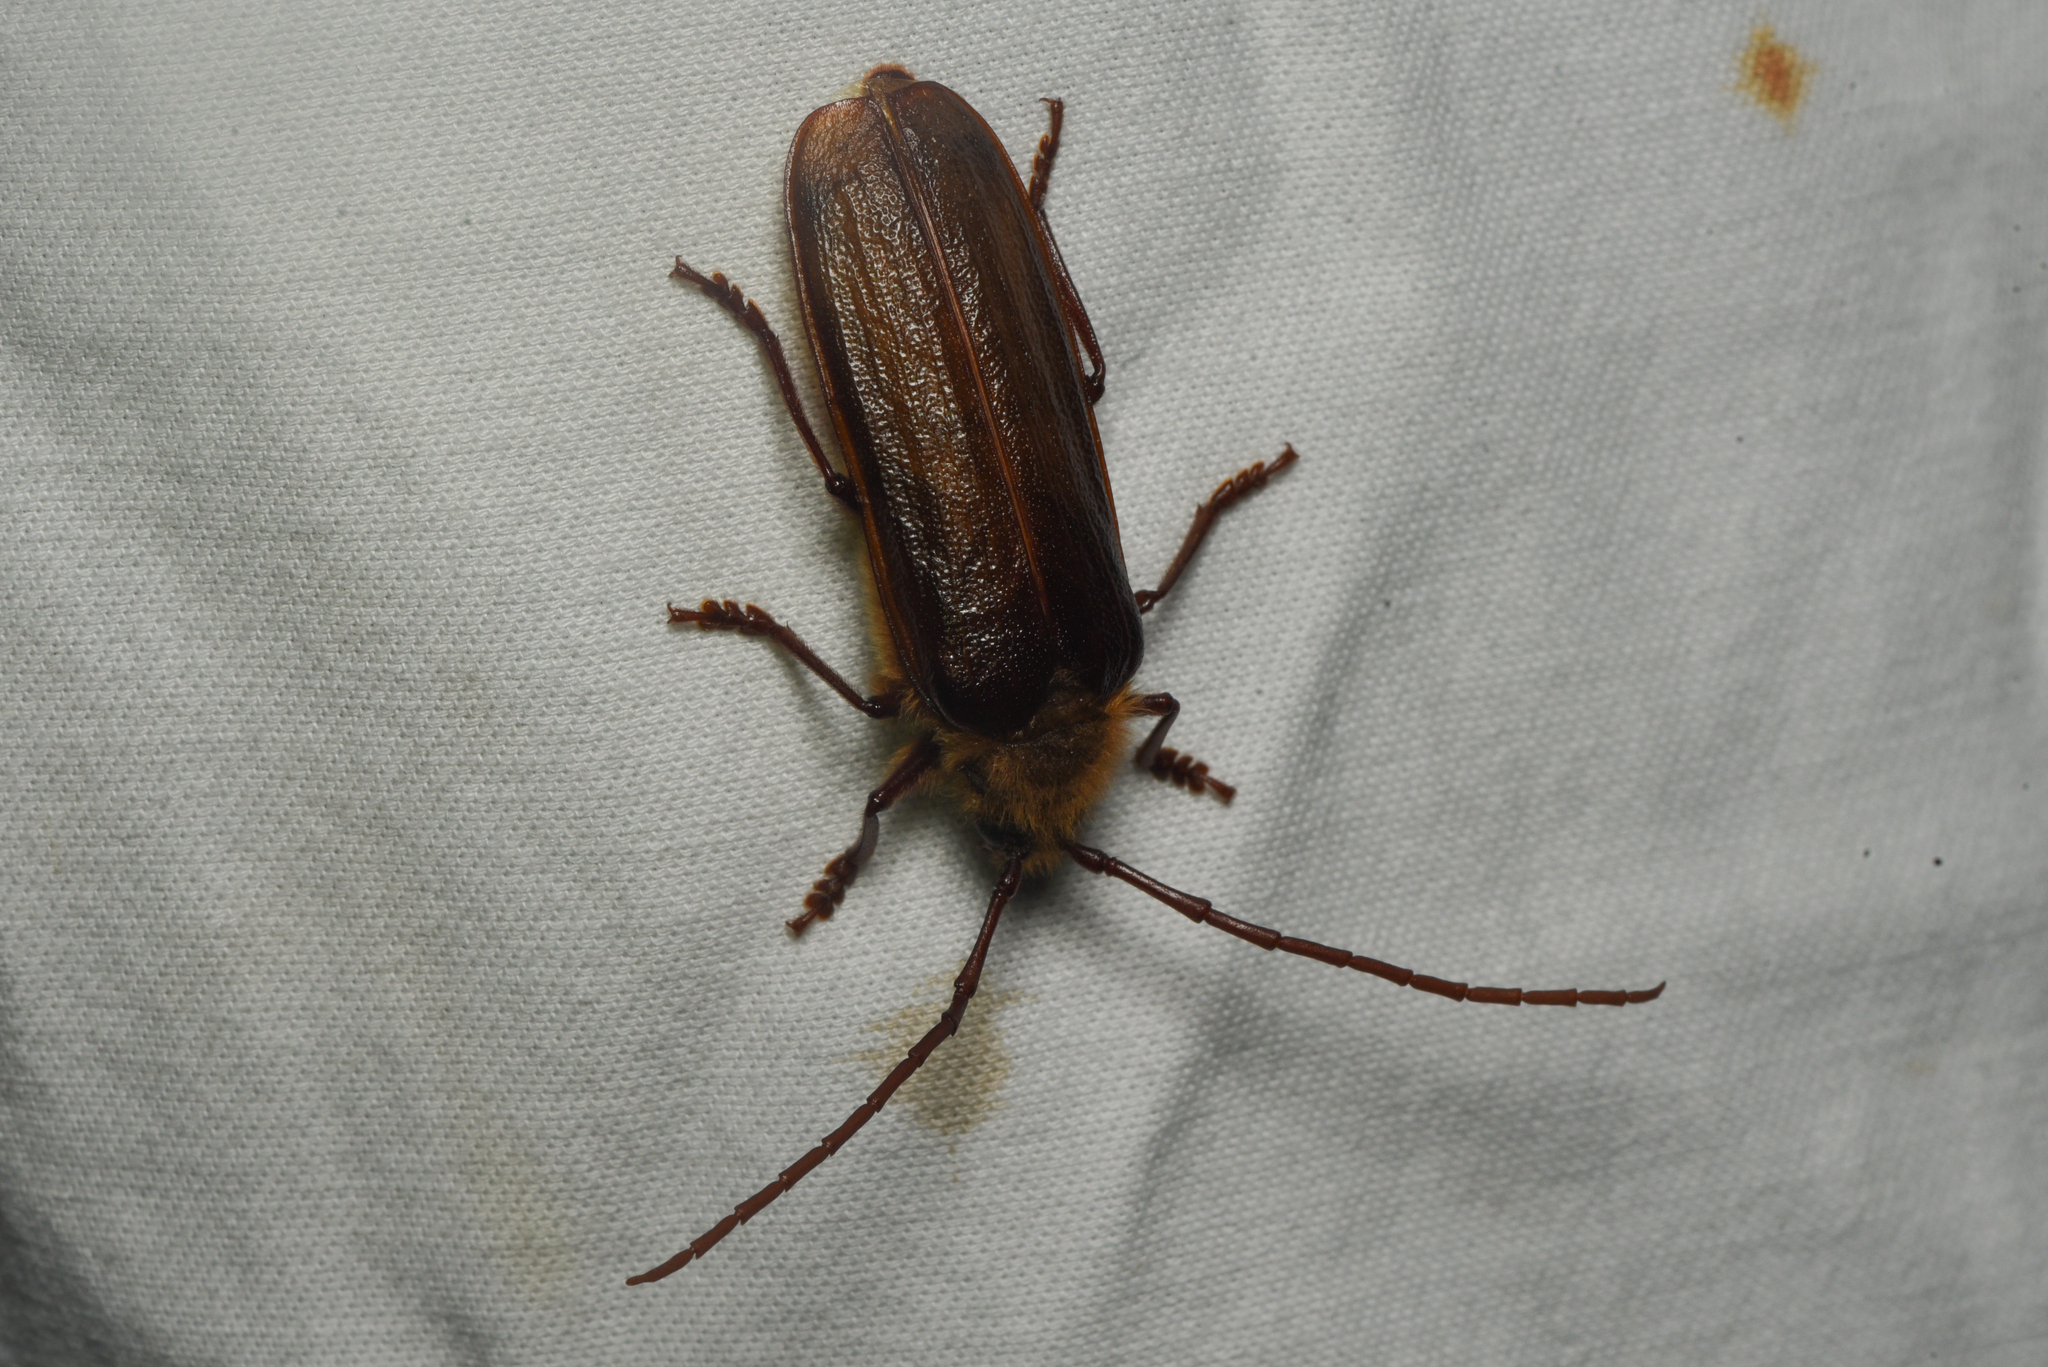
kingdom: Animalia
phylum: Arthropoda
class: Insecta
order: Coleoptera
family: Cerambycidae
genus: Tragosoma
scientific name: Tragosoma harrisii
